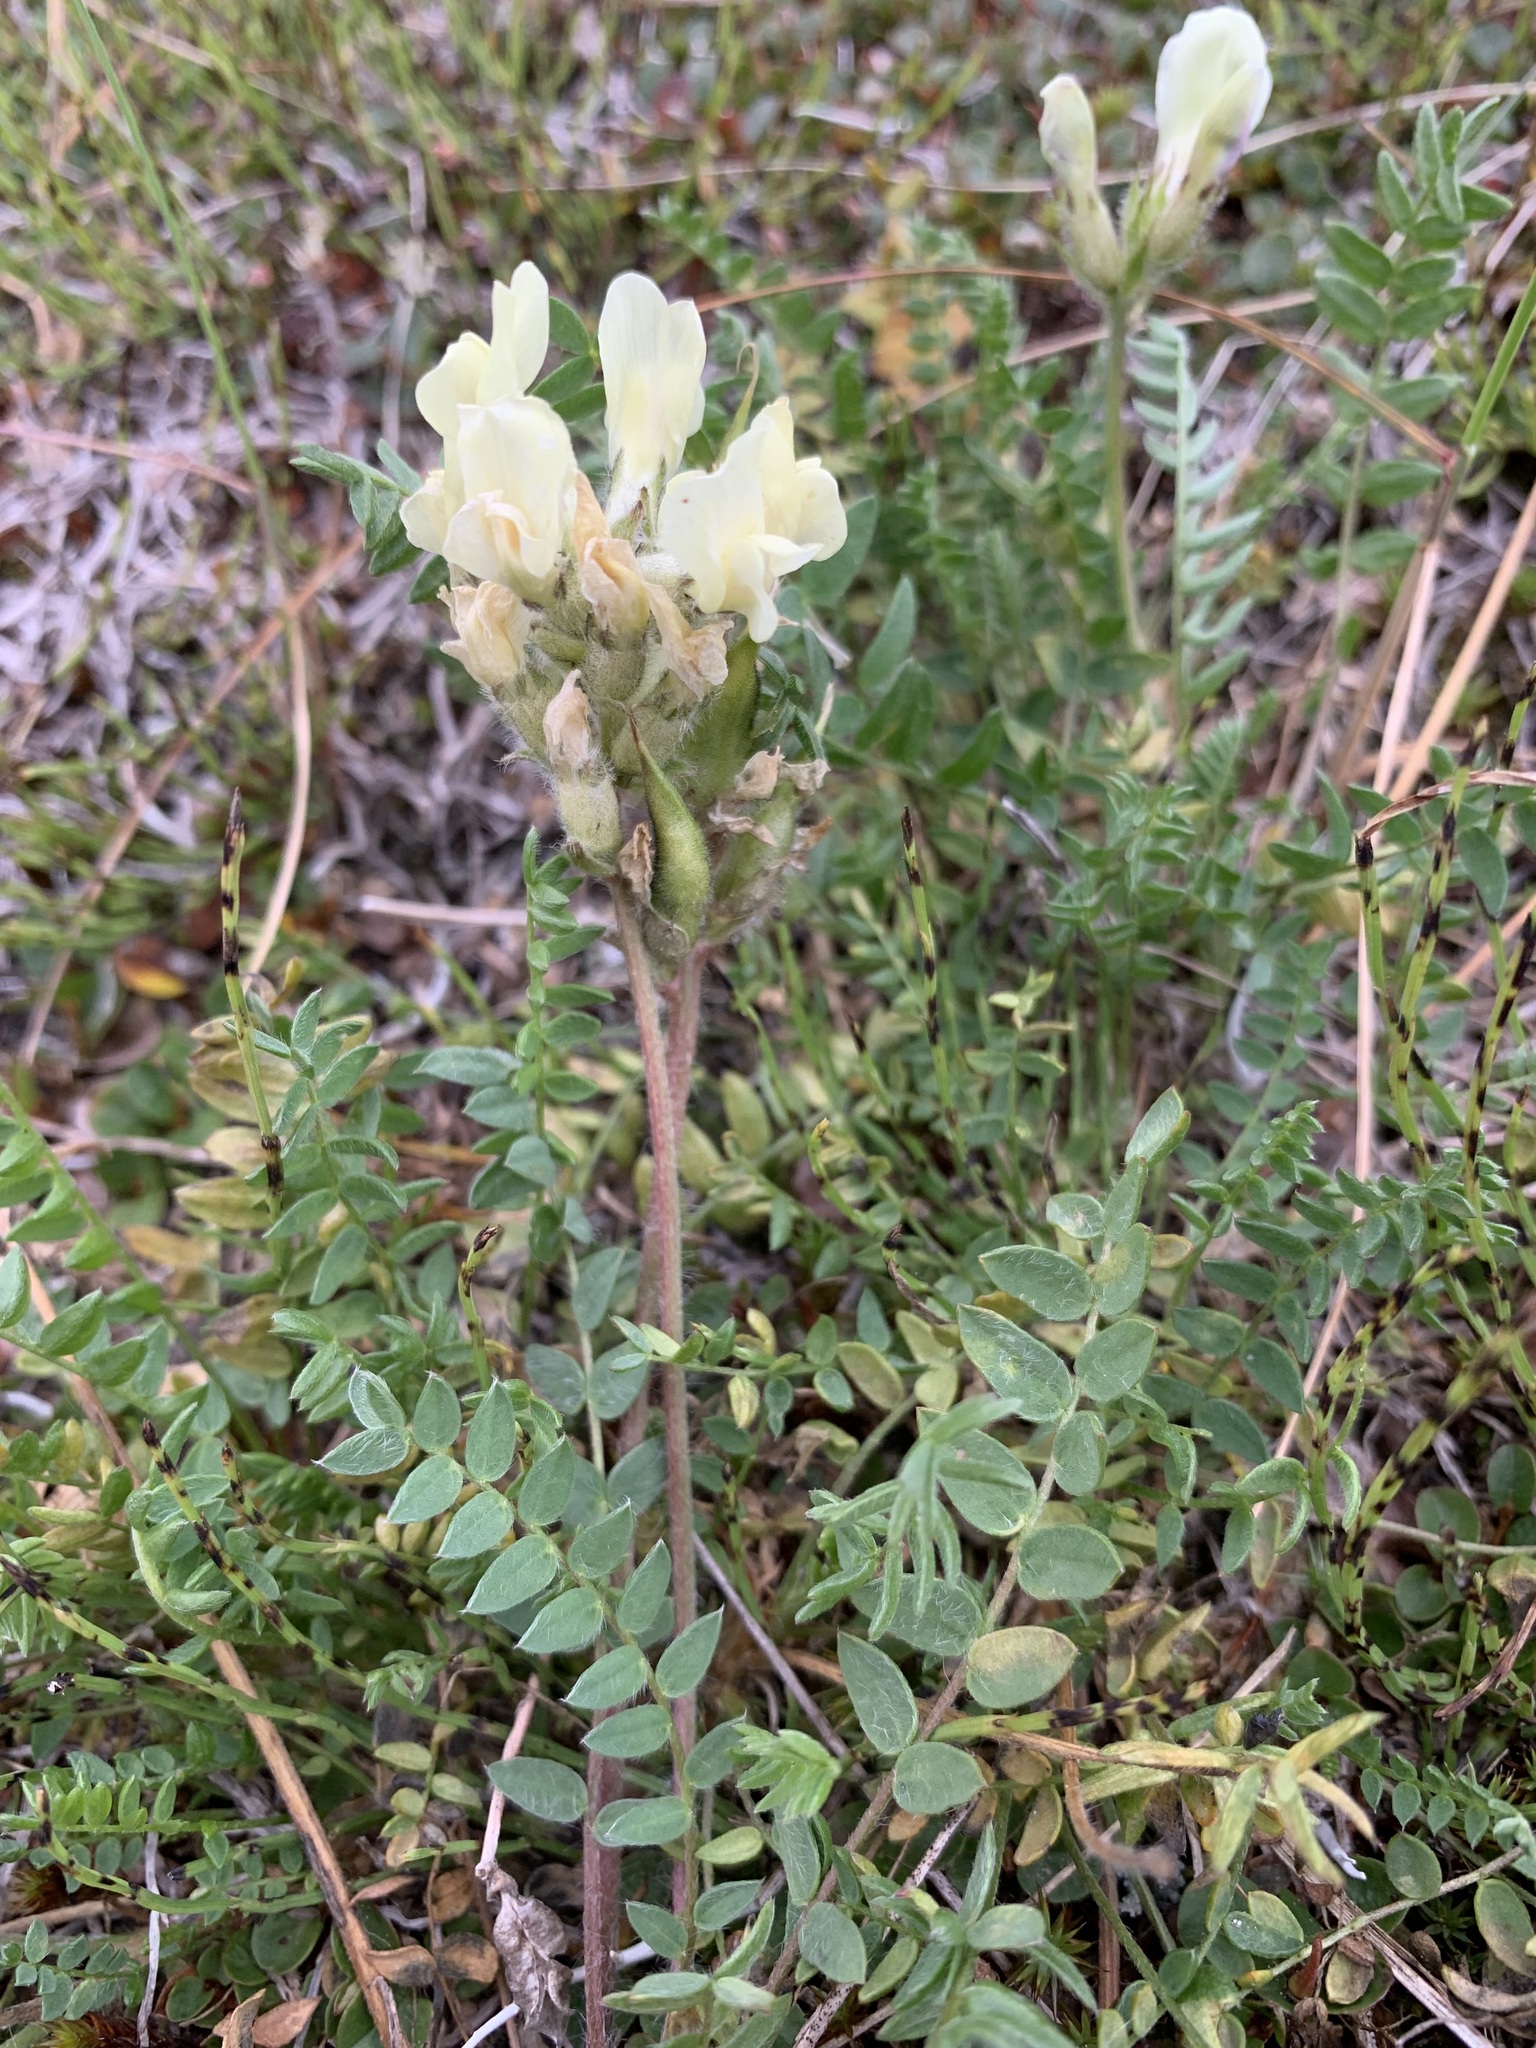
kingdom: Plantae
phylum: Tracheophyta
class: Magnoliopsida
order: Fabales
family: Fabaceae
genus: Oxytropis
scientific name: Oxytropis sordida
